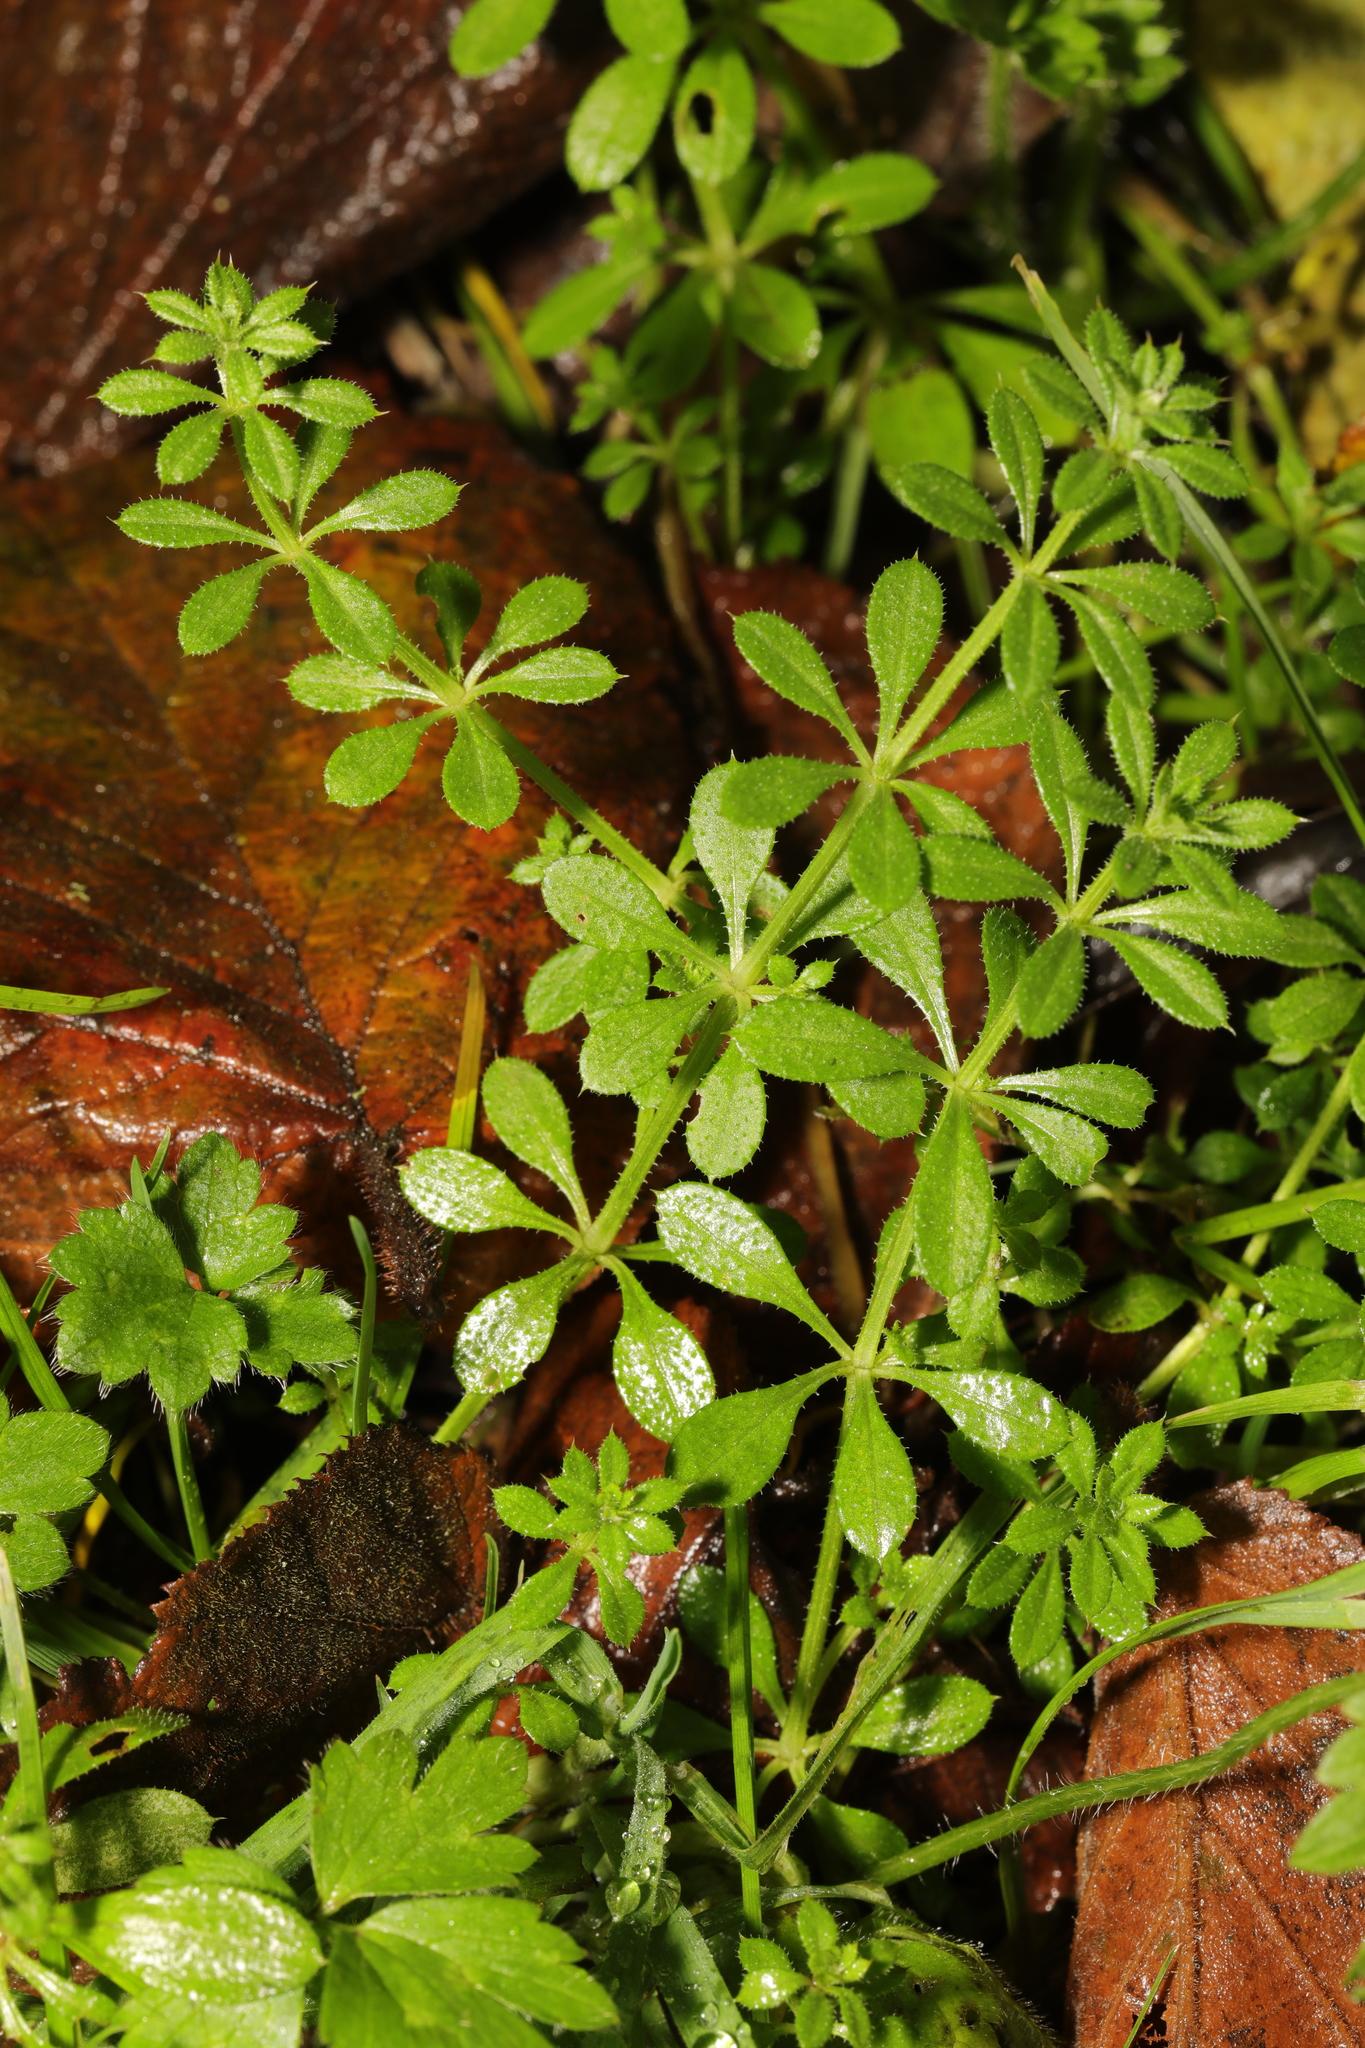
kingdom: Plantae
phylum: Tracheophyta
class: Magnoliopsida
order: Gentianales
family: Rubiaceae
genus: Galium
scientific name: Galium aparine
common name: Cleavers
